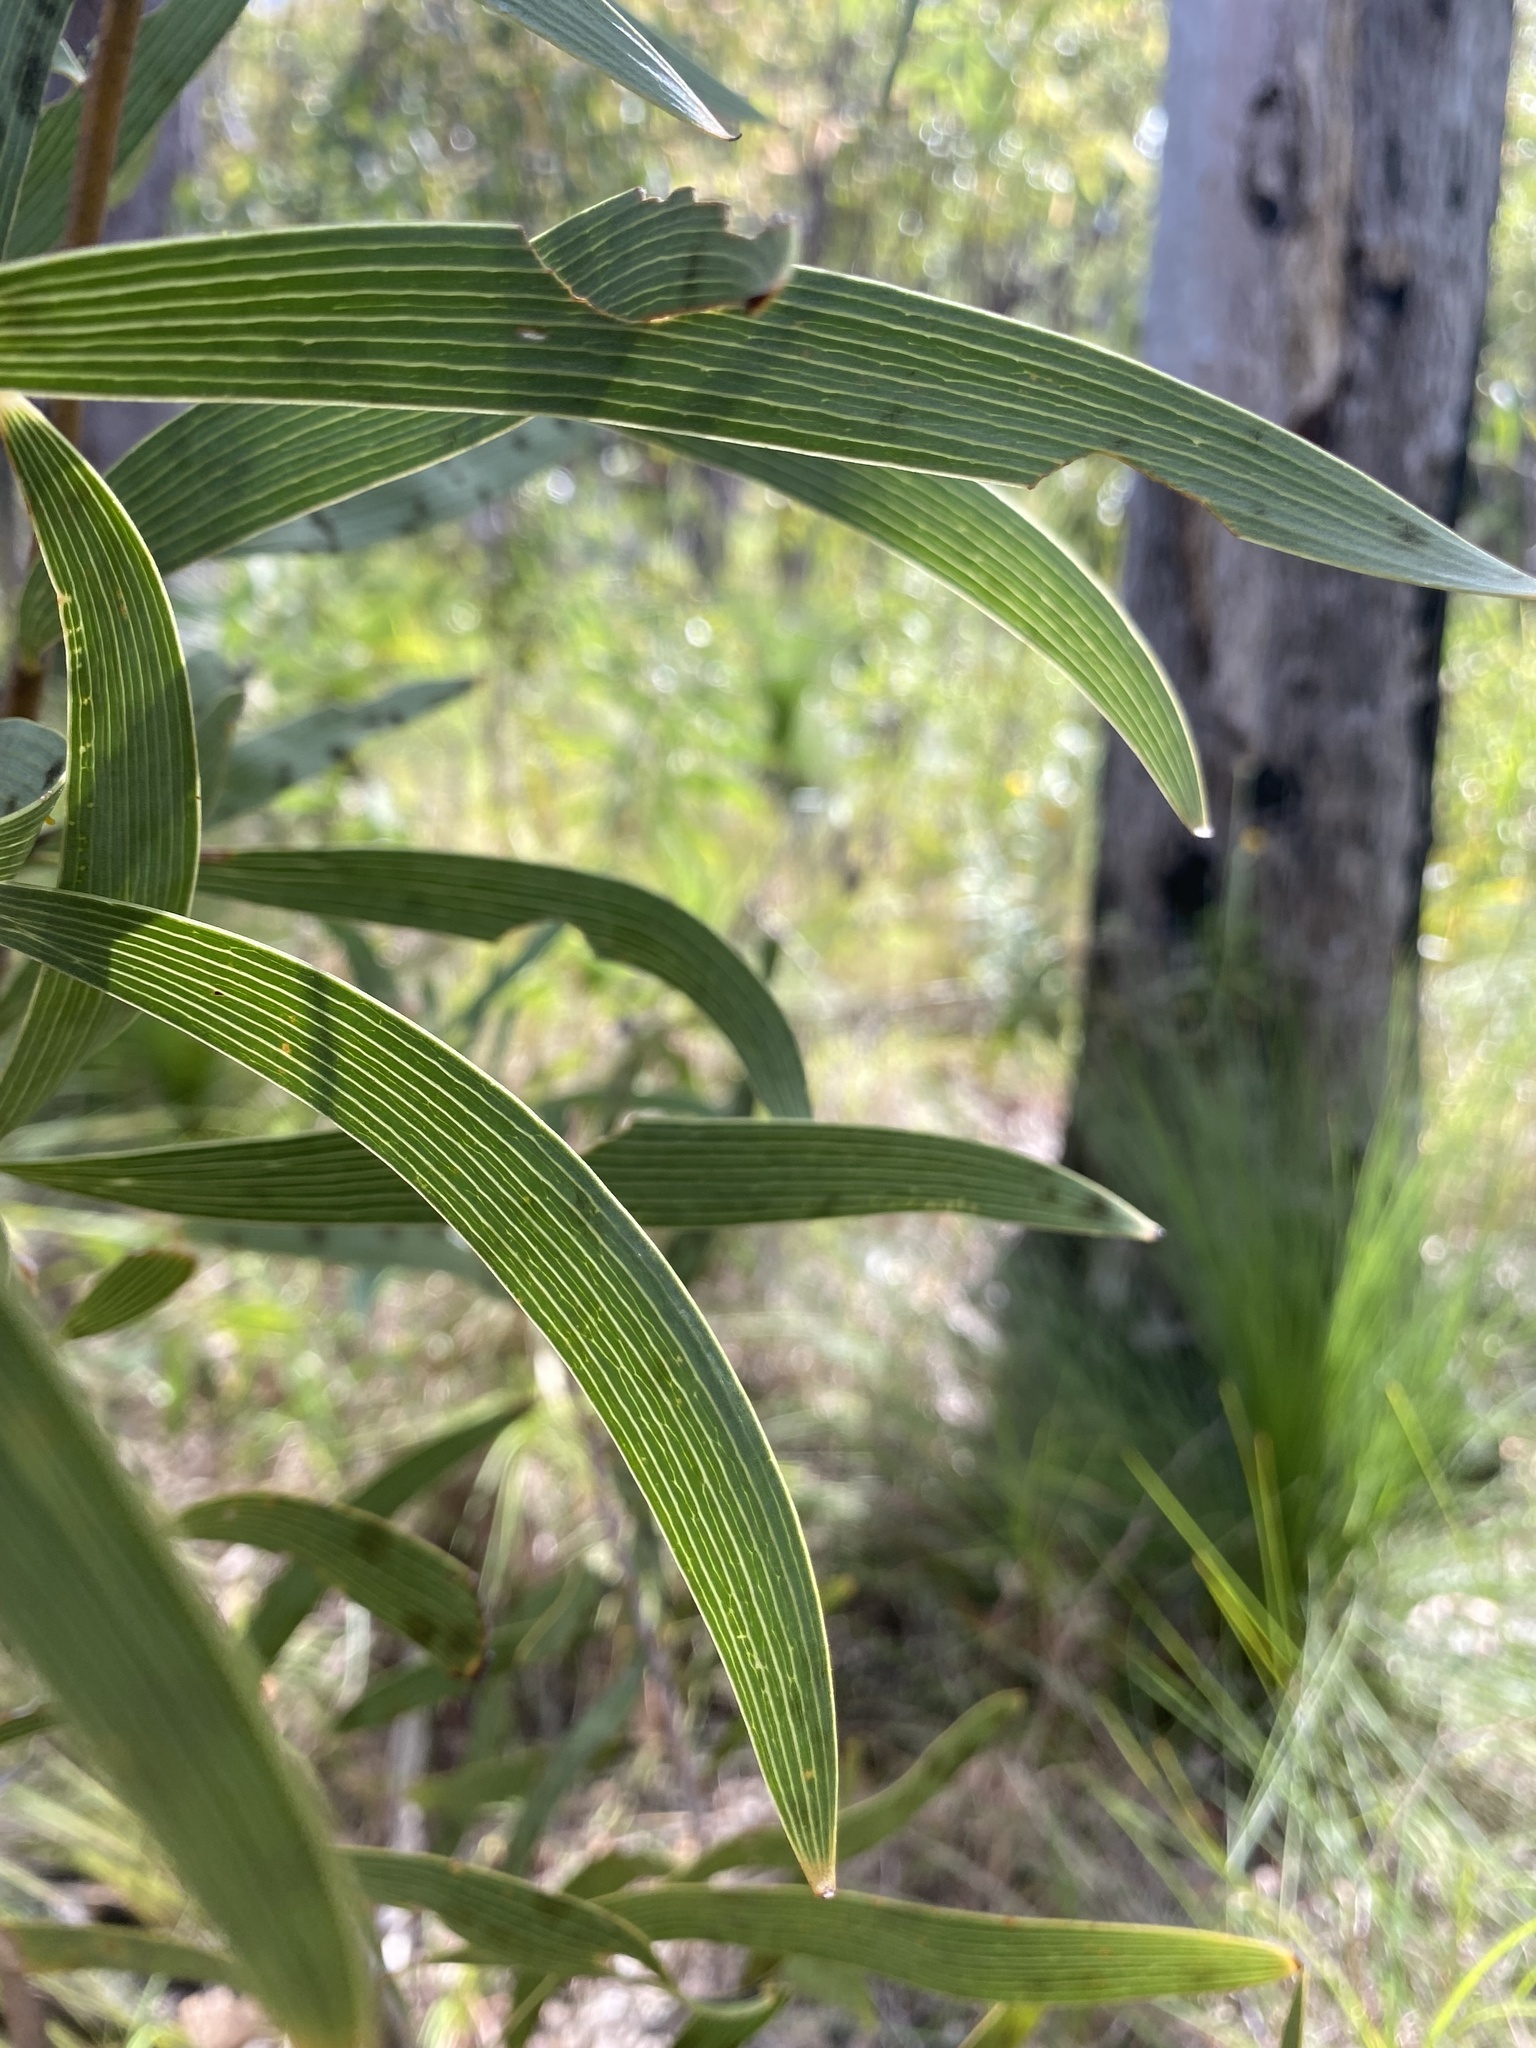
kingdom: Plantae
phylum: Tracheophyta
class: Magnoliopsida
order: Proteales
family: Proteaceae
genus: Hakea
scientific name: Hakea benthamii
